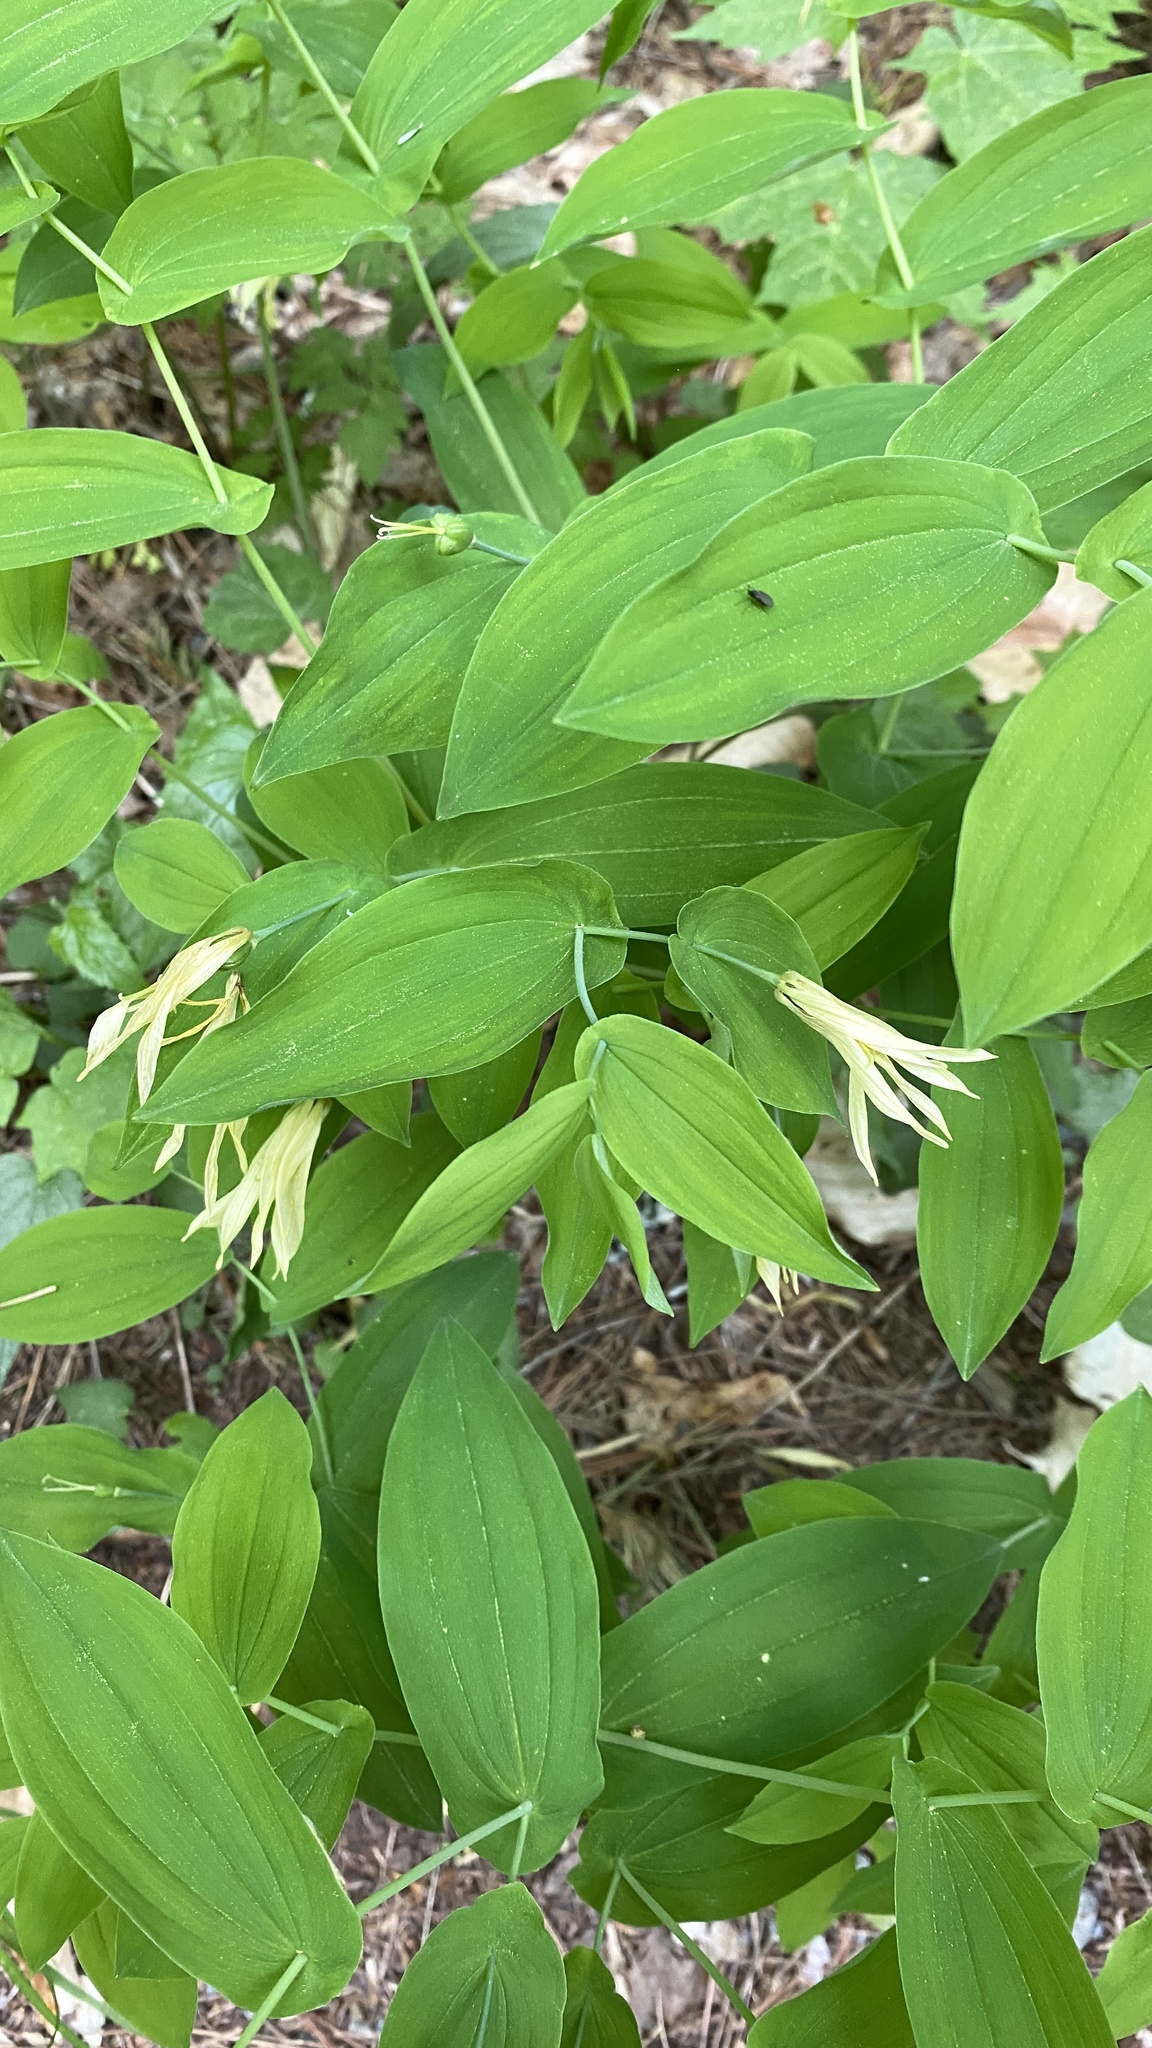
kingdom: Plantae
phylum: Tracheophyta
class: Liliopsida
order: Liliales
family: Colchicaceae
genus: Uvularia
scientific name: Uvularia grandiflora
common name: Bellwort
